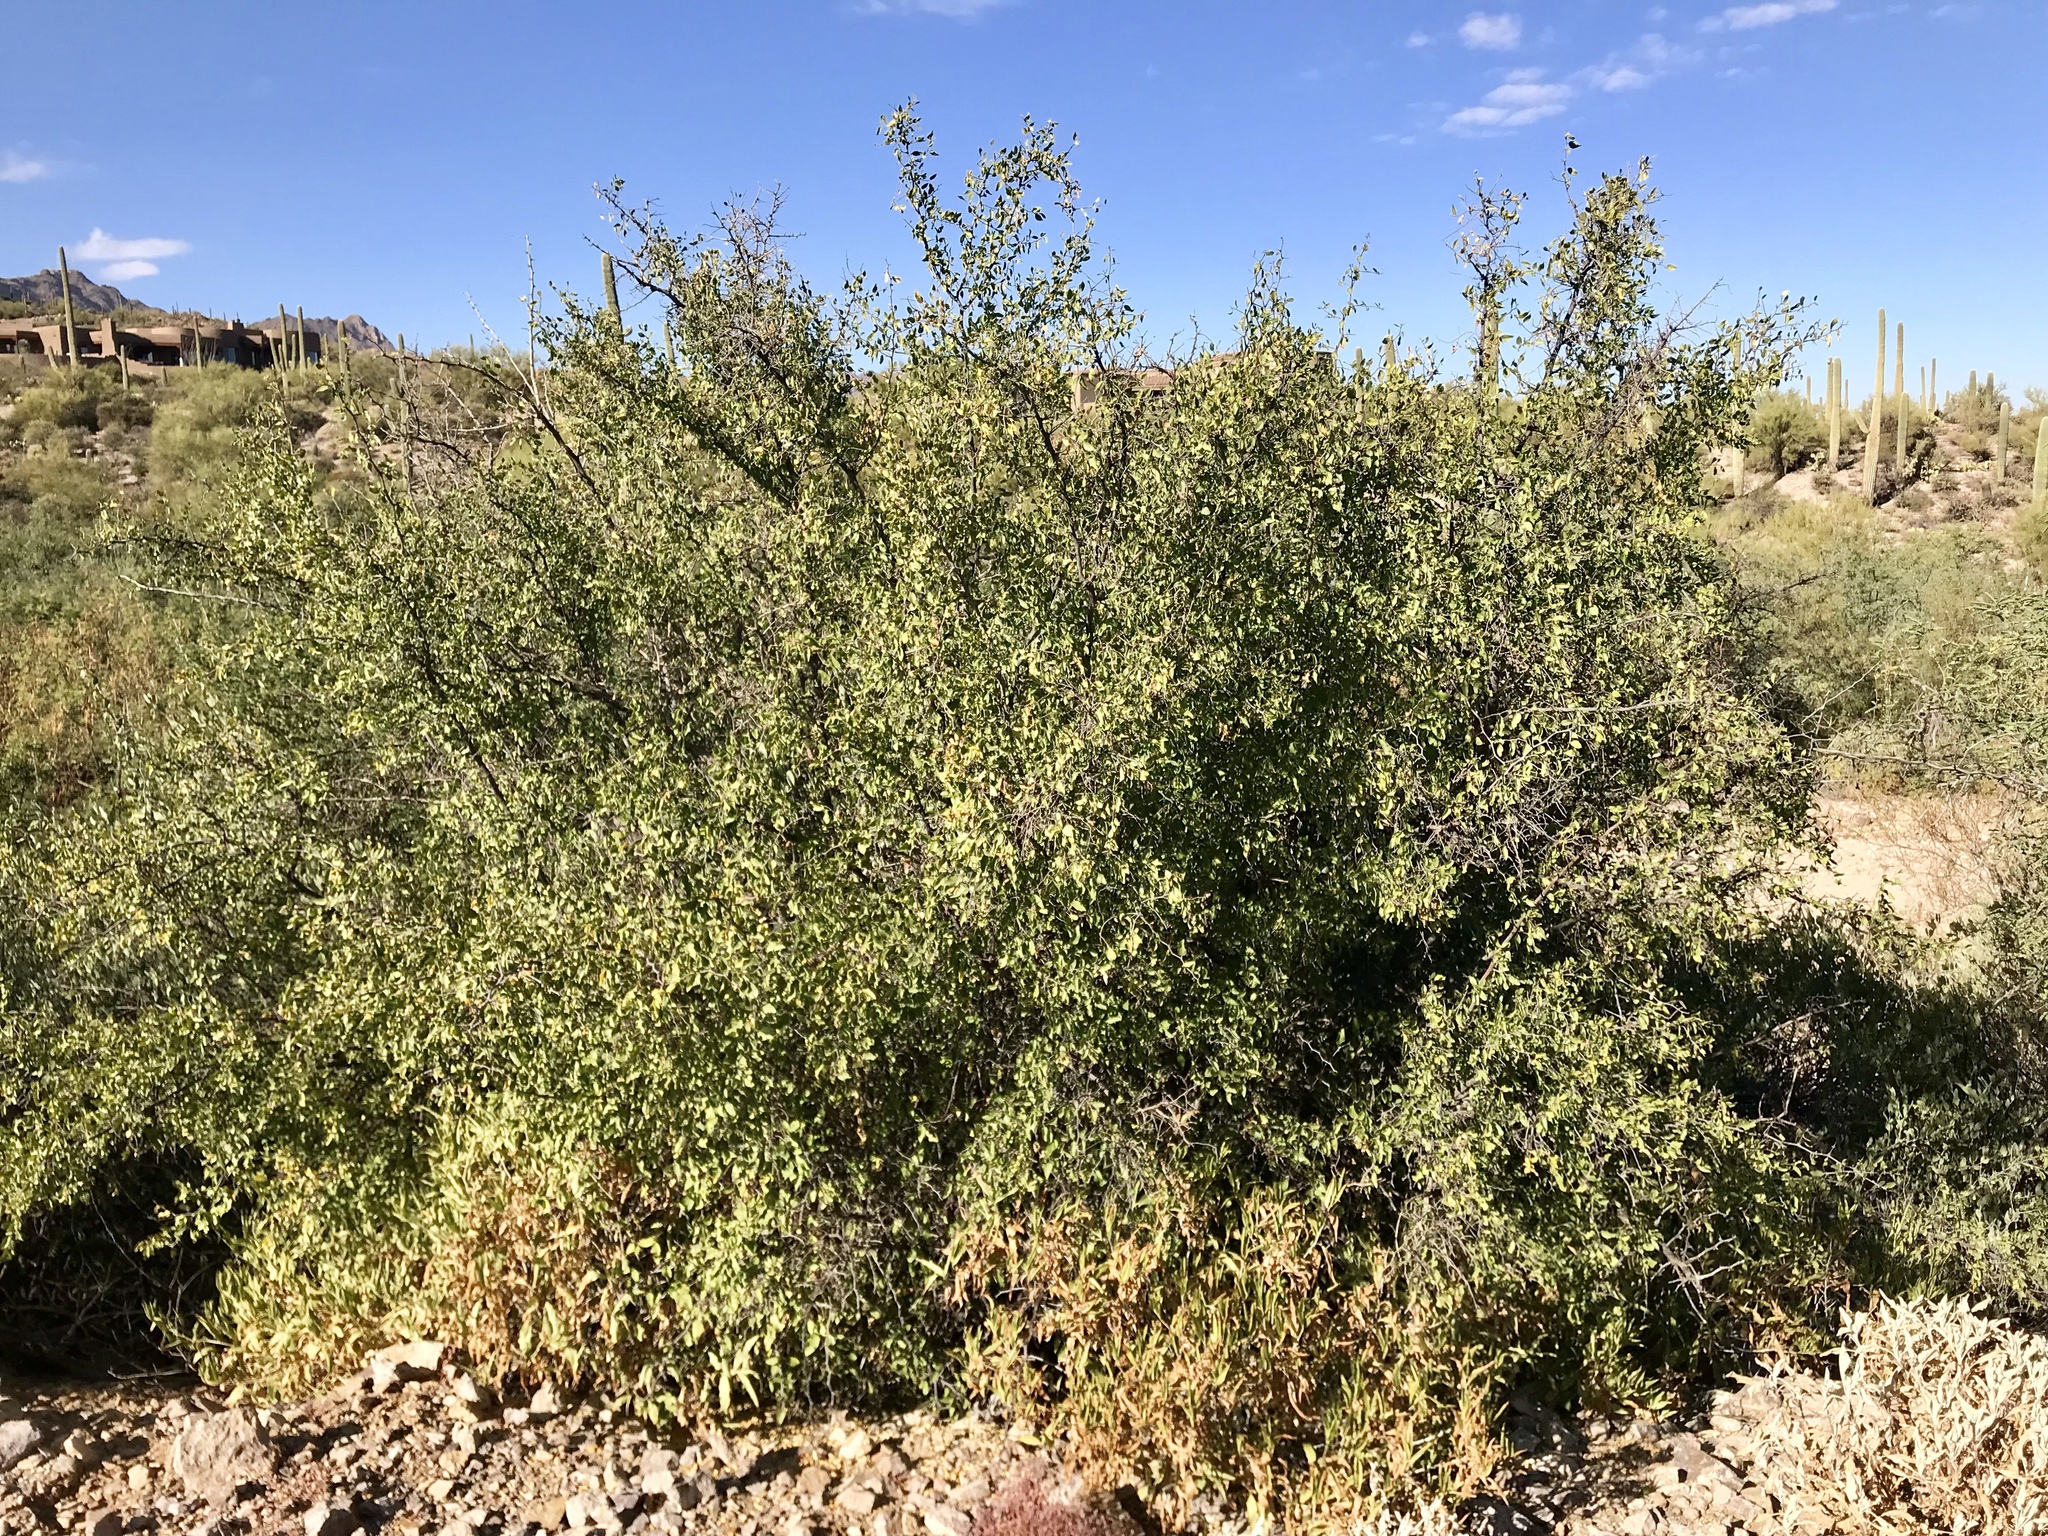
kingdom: Plantae
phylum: Tracheophyta
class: Magnoliopsida
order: Rosales
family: Cannabaceae
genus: Celtis
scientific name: Celtis pallida
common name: Desert hackberry
